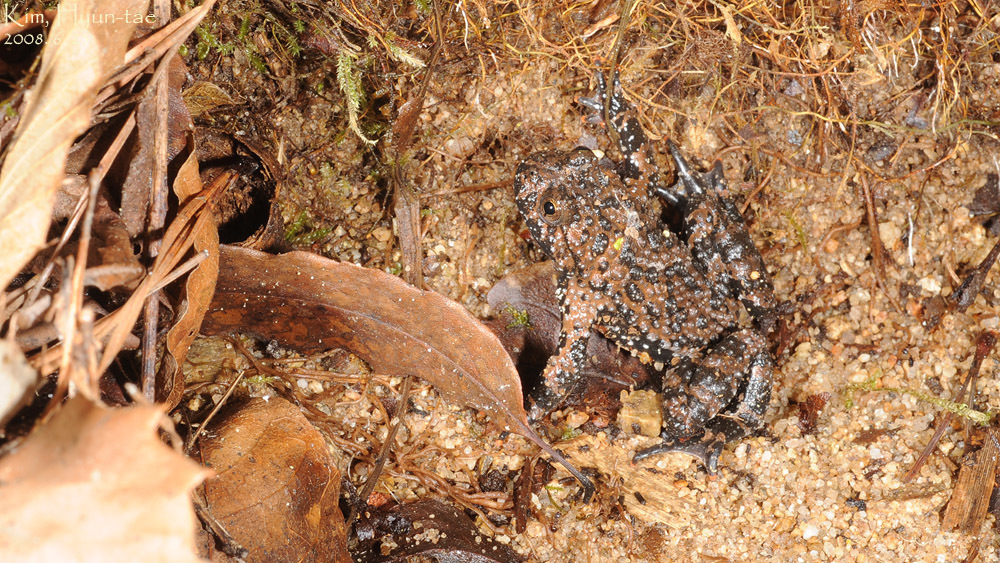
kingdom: Animalia
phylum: Chordata
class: Amphibia
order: Anura
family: Bombinatoridae
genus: Bombina
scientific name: Bombina orientalis
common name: Oriental firebelly toad
